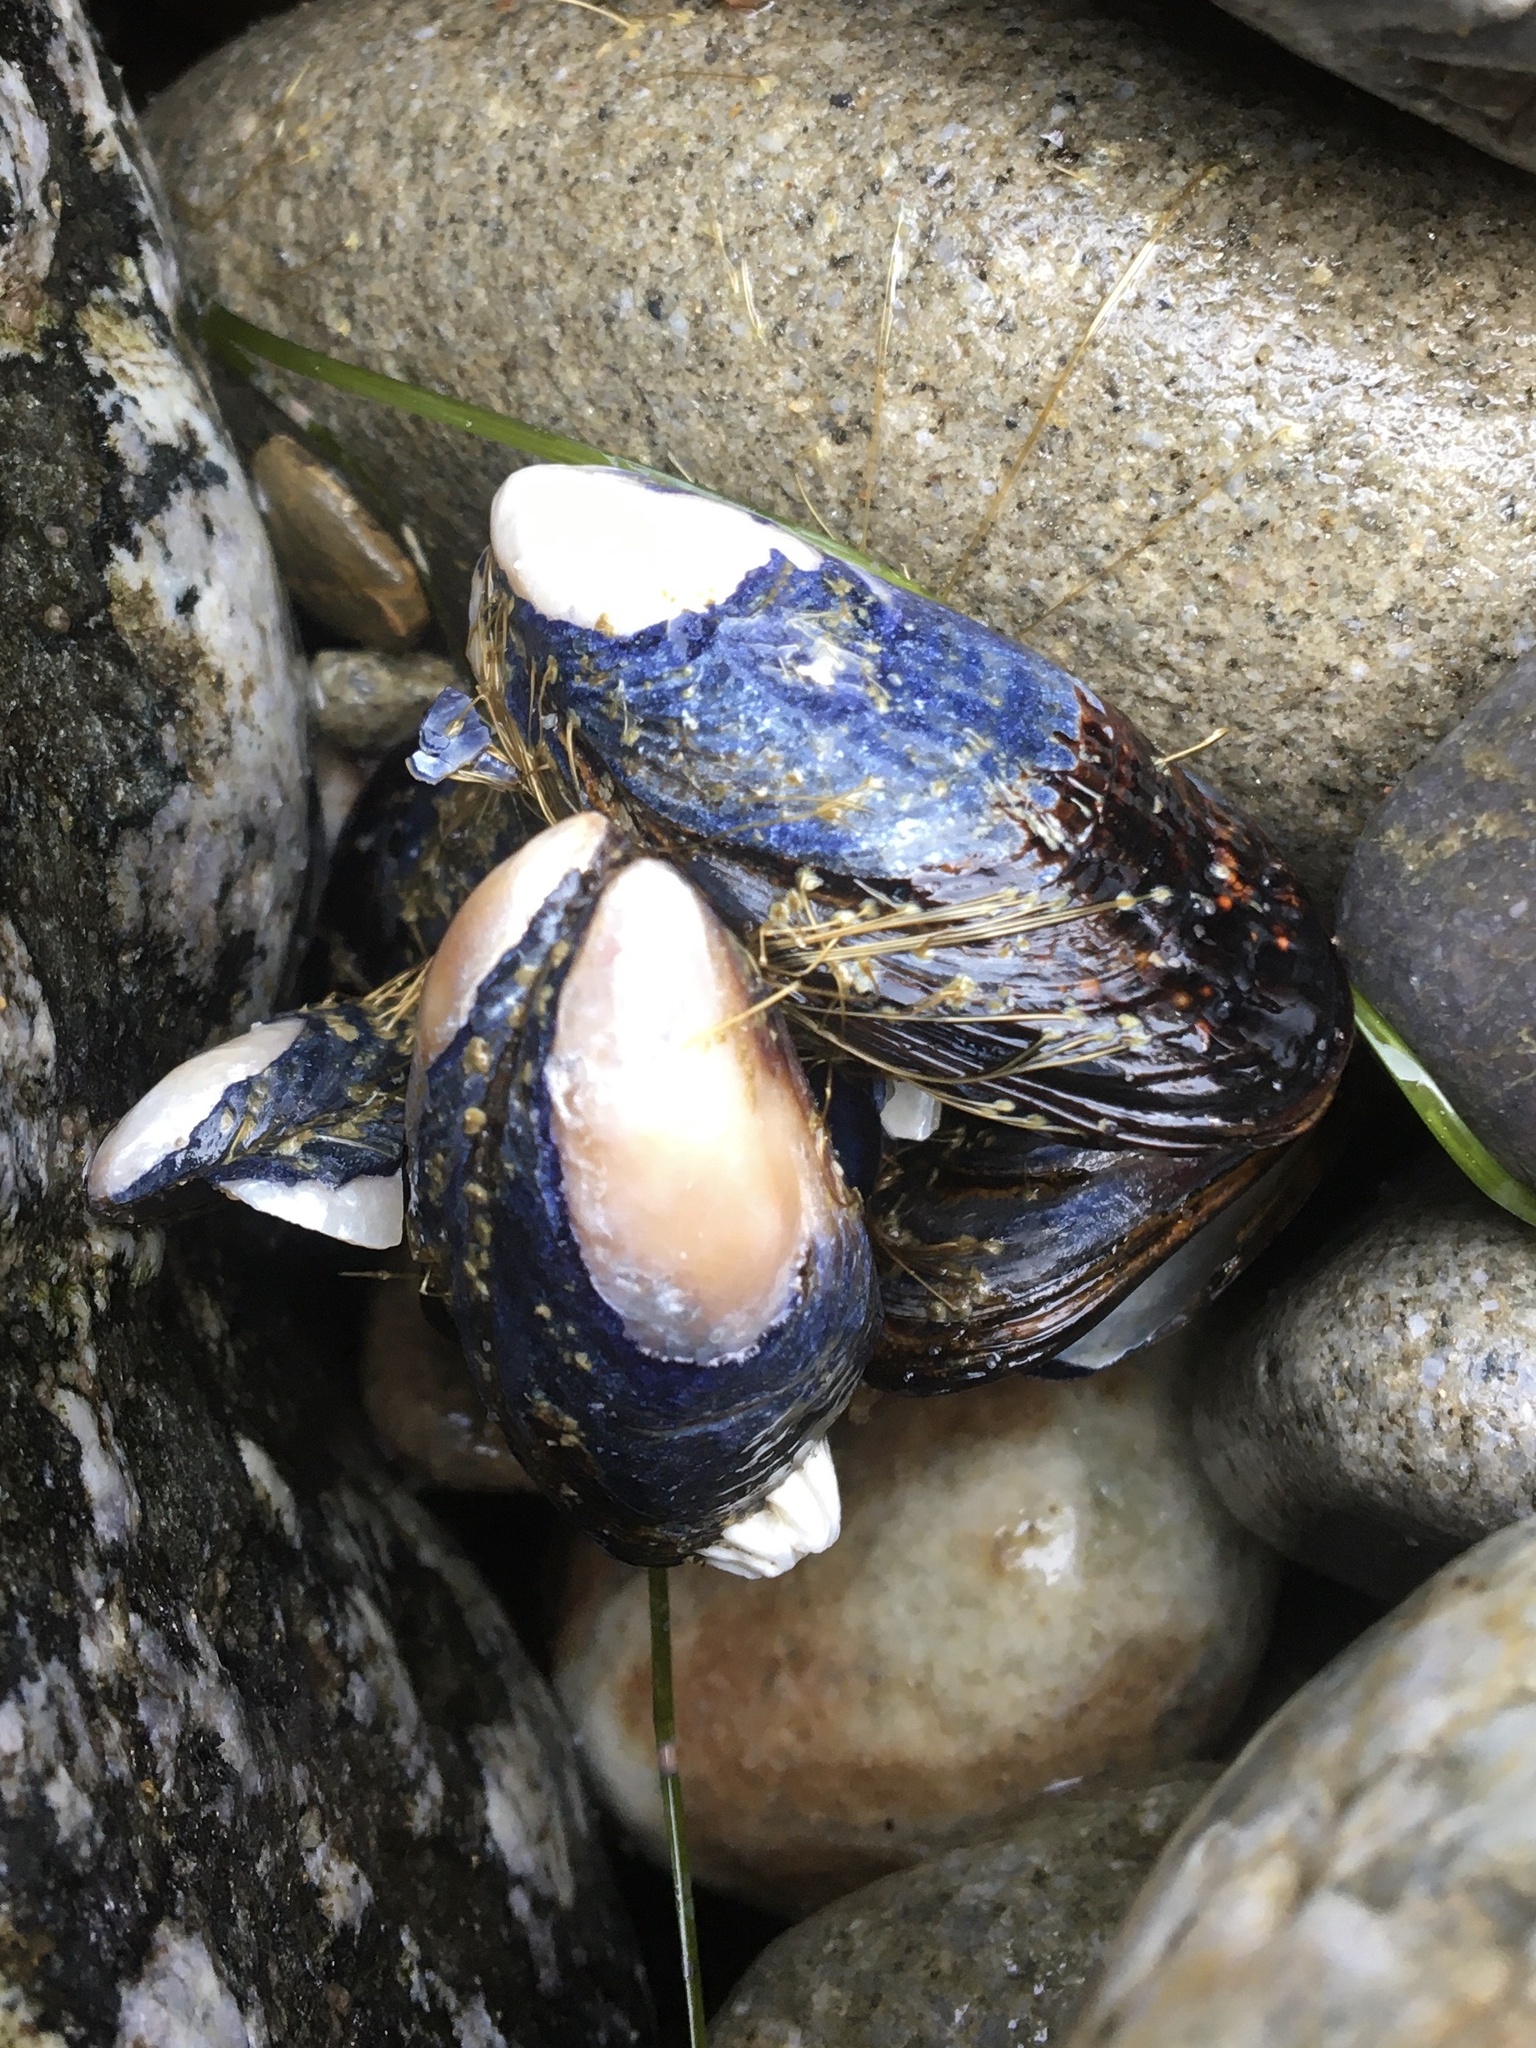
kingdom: Animalia
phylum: Mollusca
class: Bivalvia
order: Mytilida
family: Mytilidae
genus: Mytilus
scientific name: Mytilus californianus
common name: California mussel
